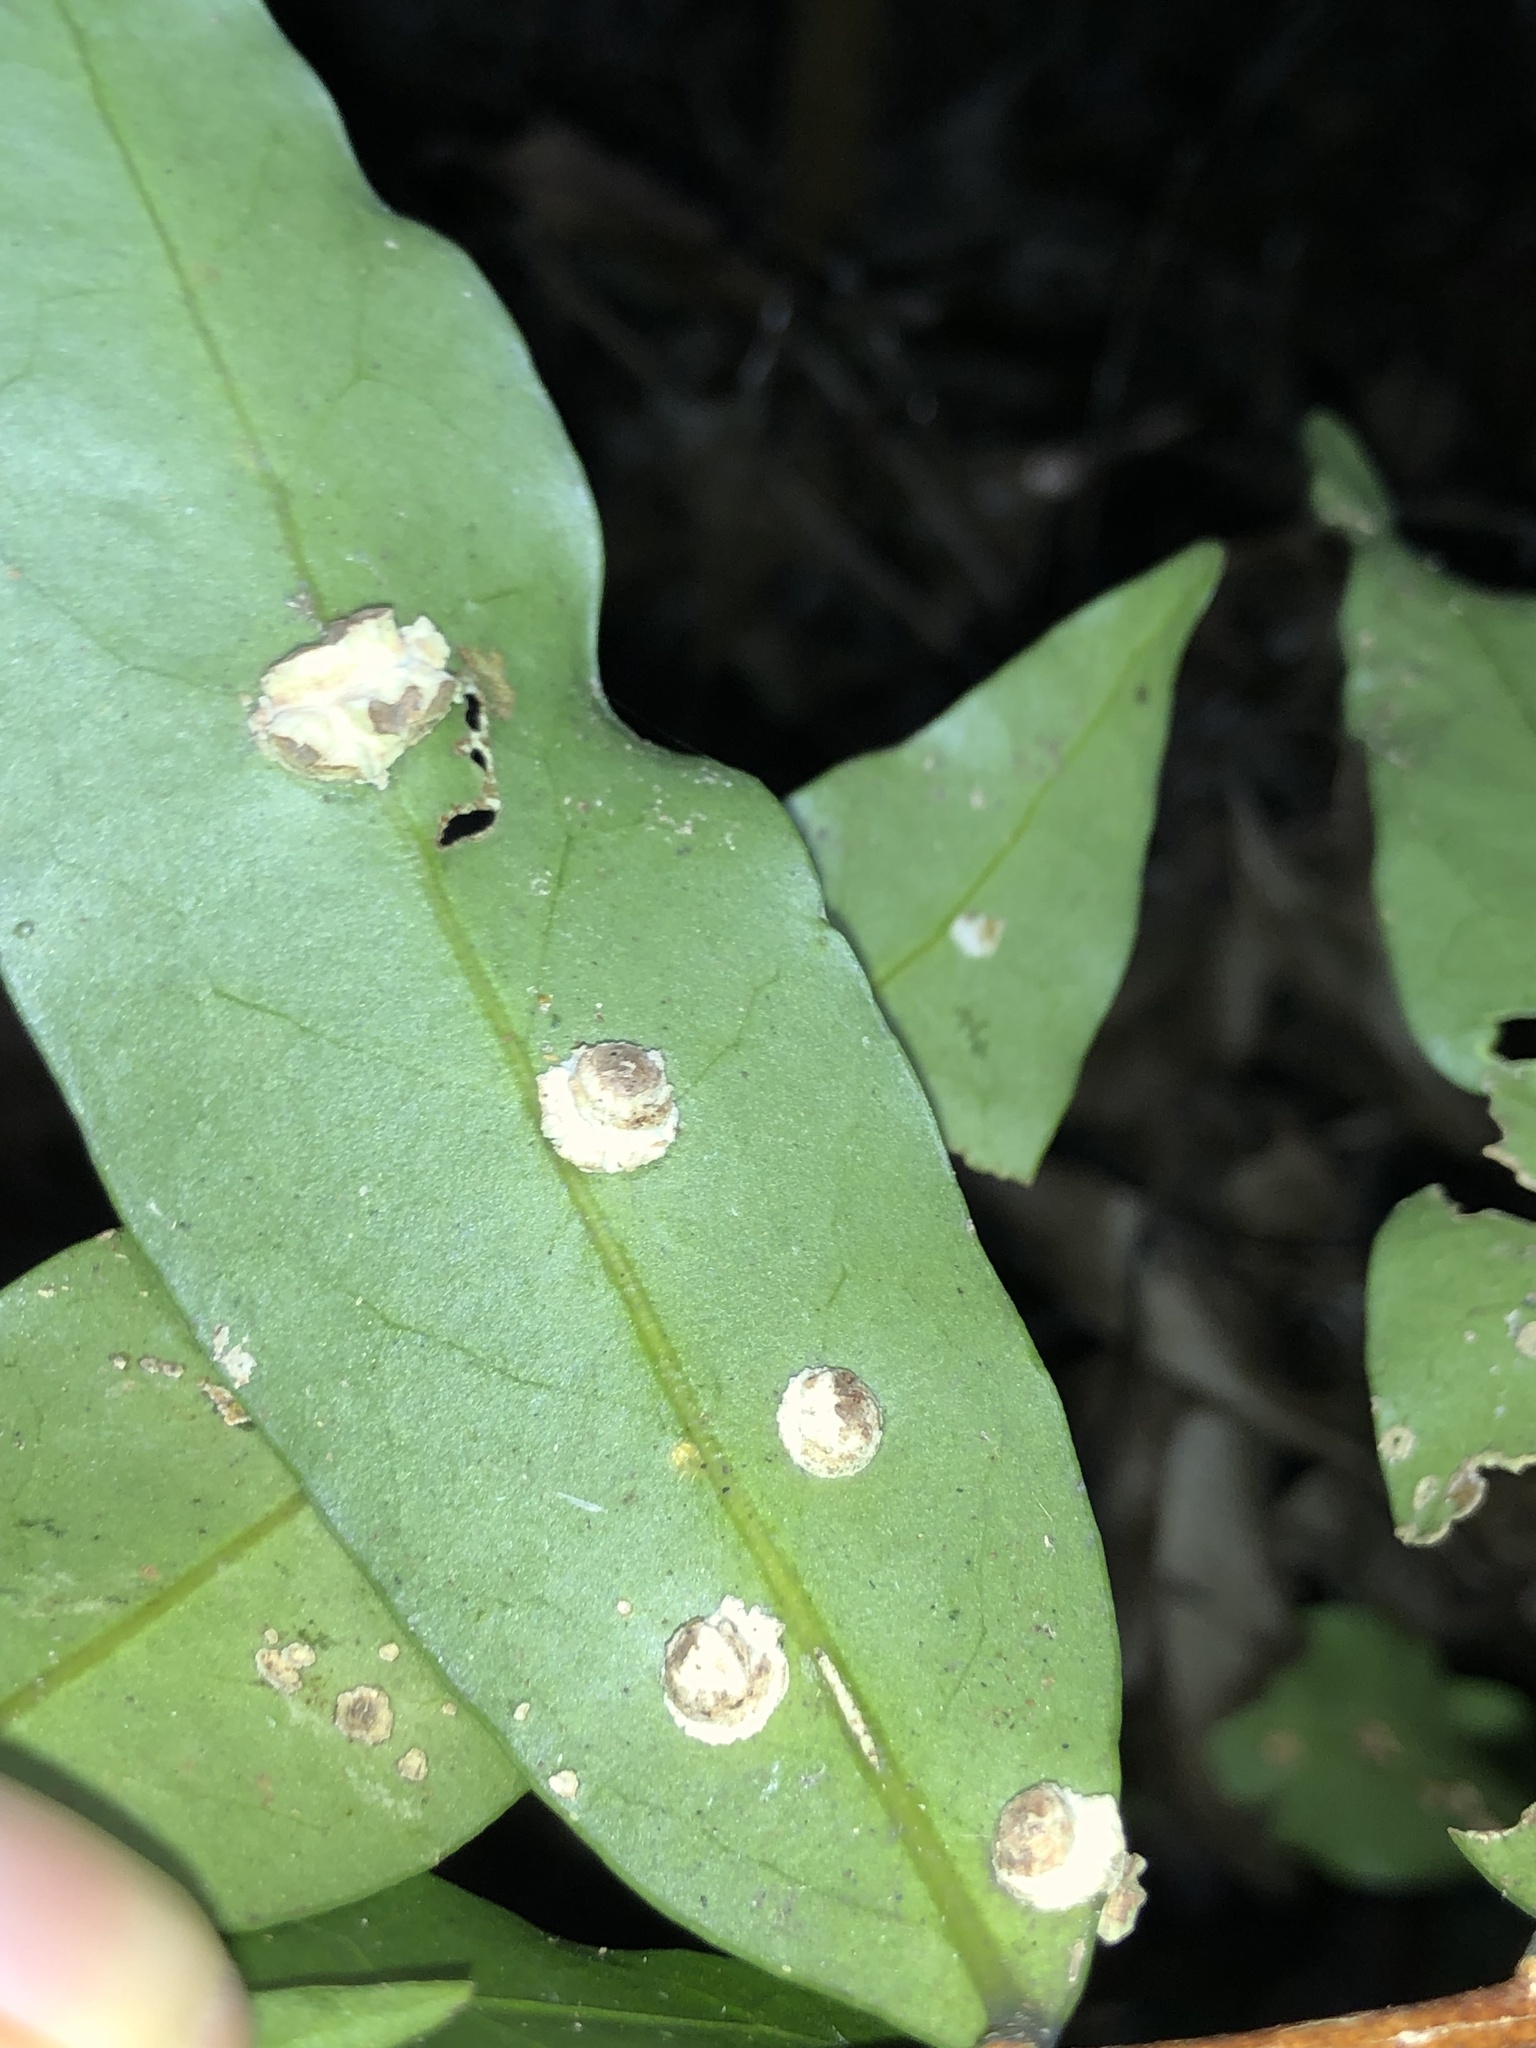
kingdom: Plantae
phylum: Tracheophyta
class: Magnoliopsida
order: Celastrales
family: Celastraceae
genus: Hedraianthera
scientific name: Hedraianthera porphyropetala
